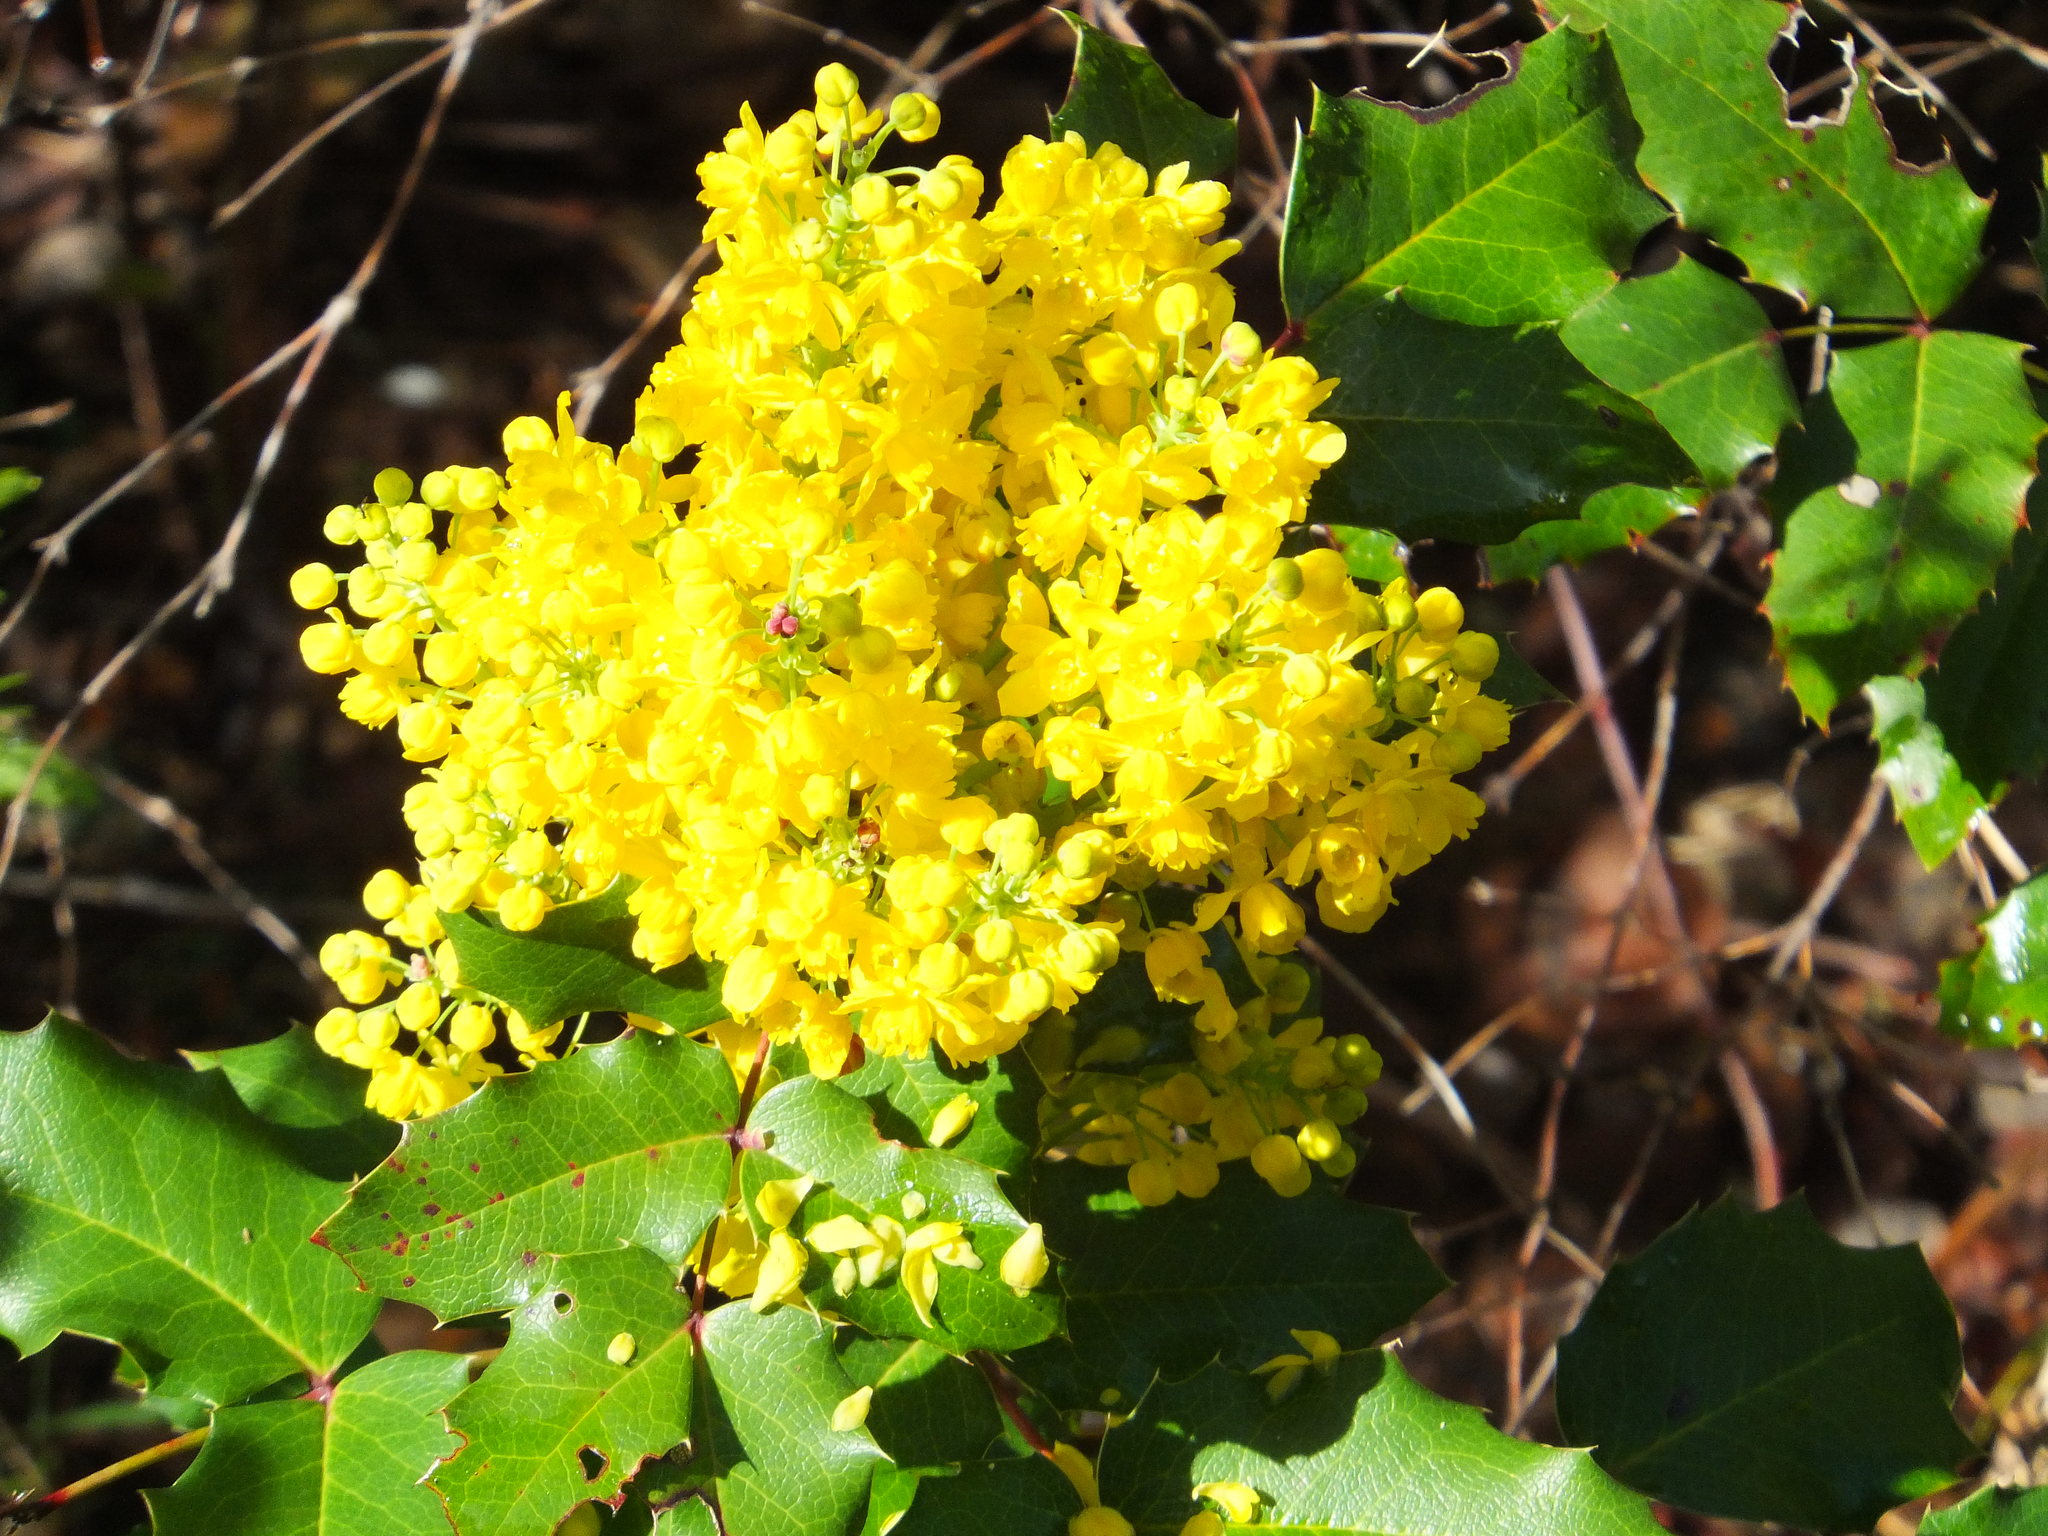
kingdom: Plantae
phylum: Tracheophyta
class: Magnoliopsida
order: Ranunculales
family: Berberidaceae
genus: Mahonia
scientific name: Mahonia aquifolium
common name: Oregon-grape
